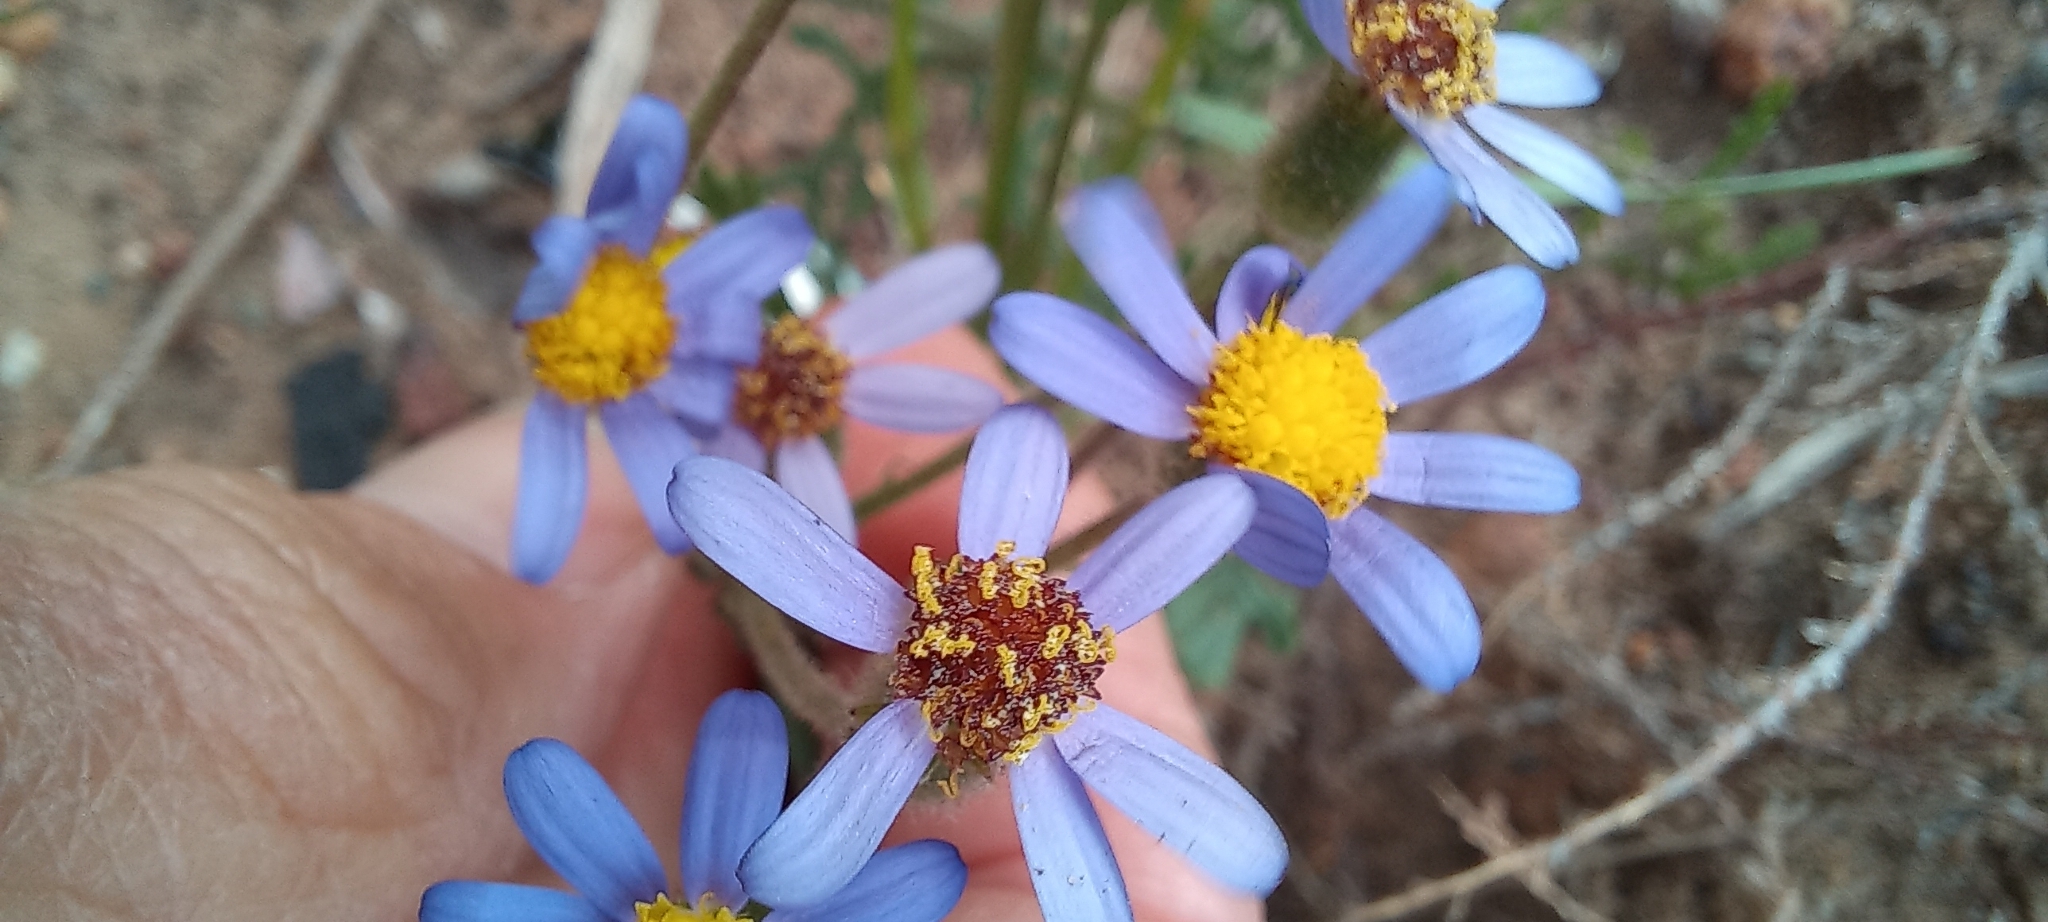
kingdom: Plantae
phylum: Tracheophyta
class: Magnoliopsida
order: Asterales
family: Asteraceae
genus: Senecio
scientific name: Senecio arenarius
